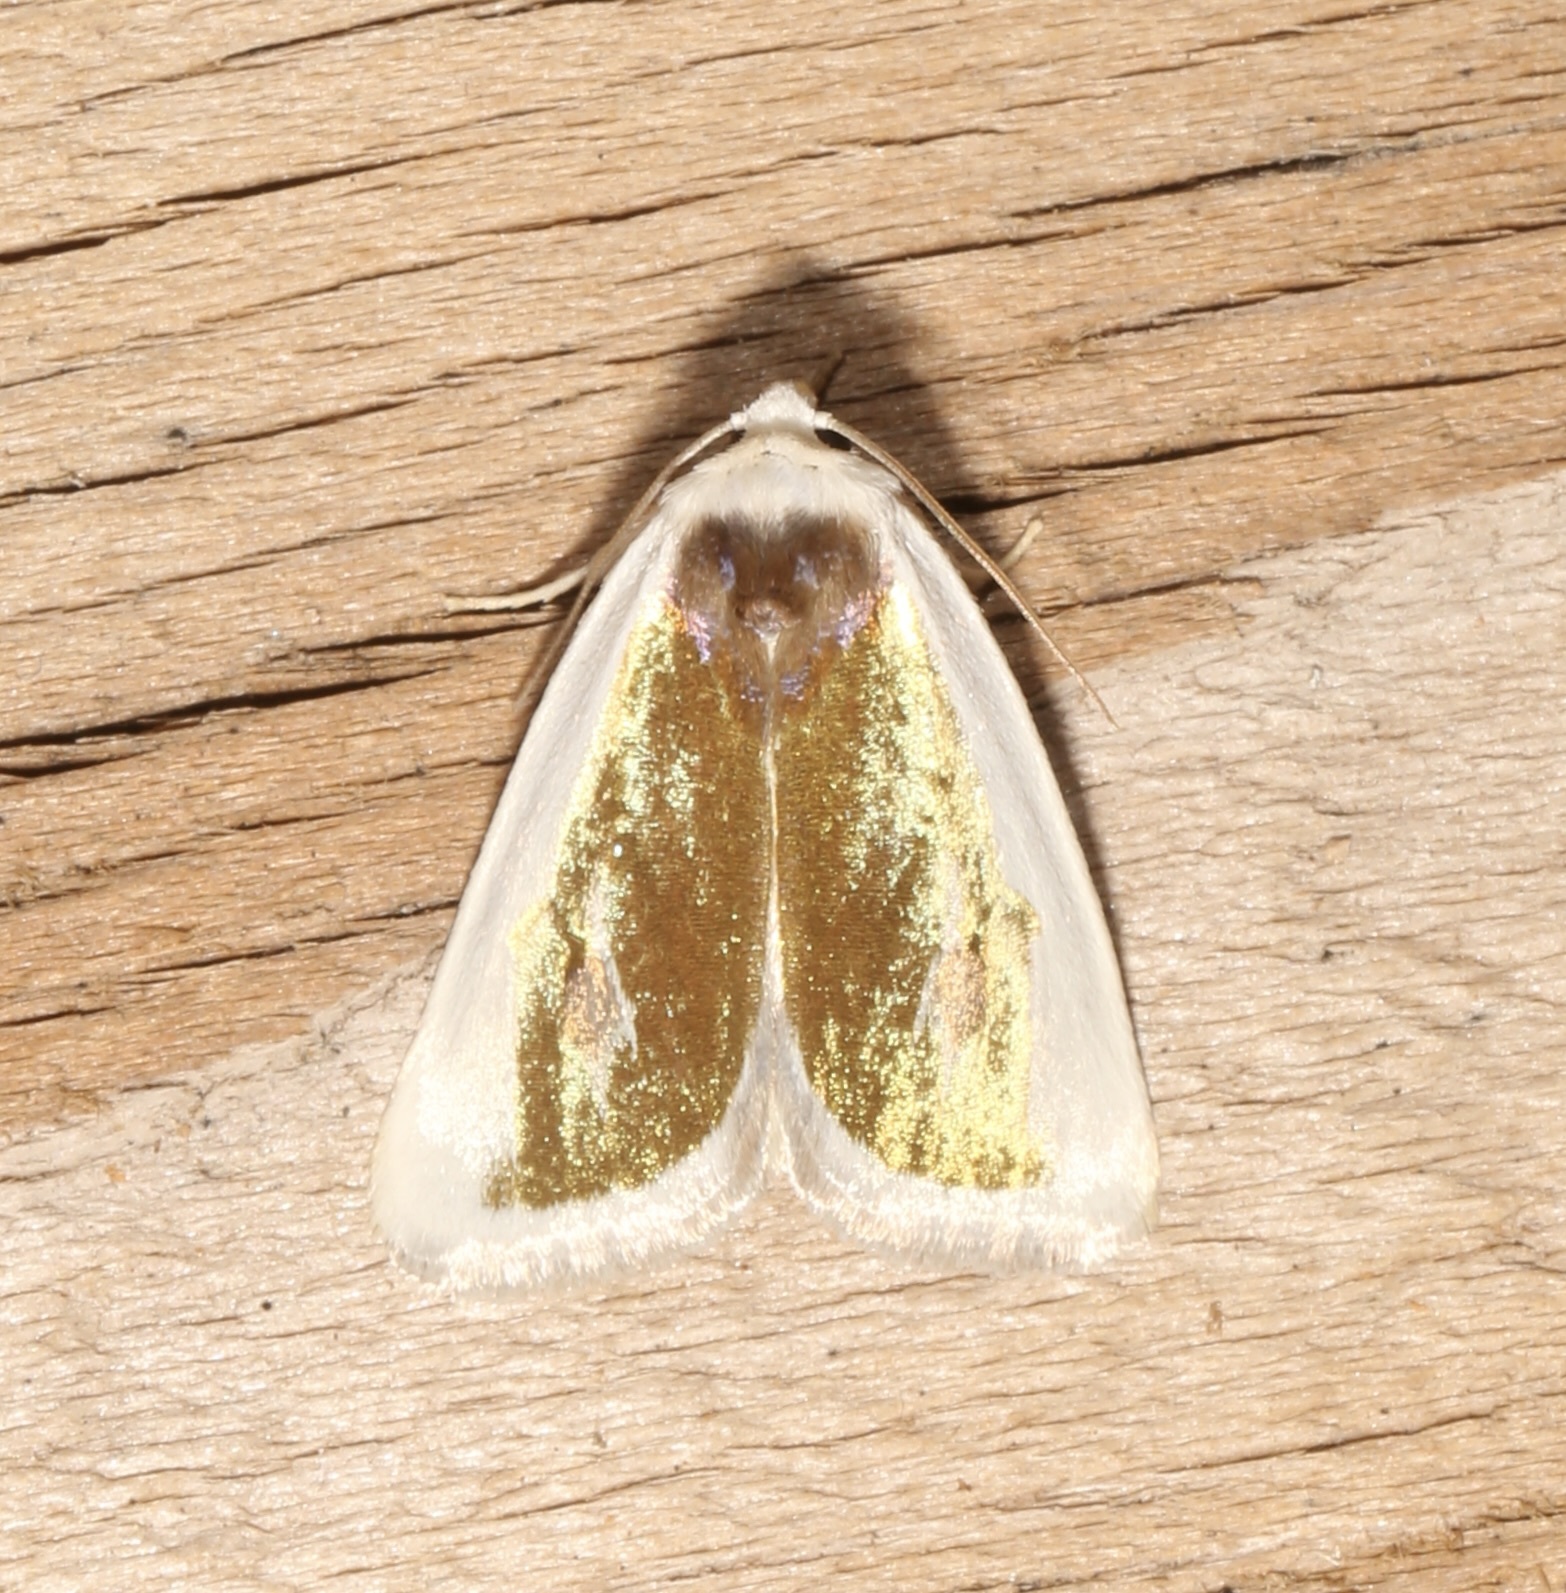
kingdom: Animalia
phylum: Arthropoda
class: Insecta
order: Lepidoptera
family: Noctuidae
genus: Neumoegenia
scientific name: Neumoegenia poetica
